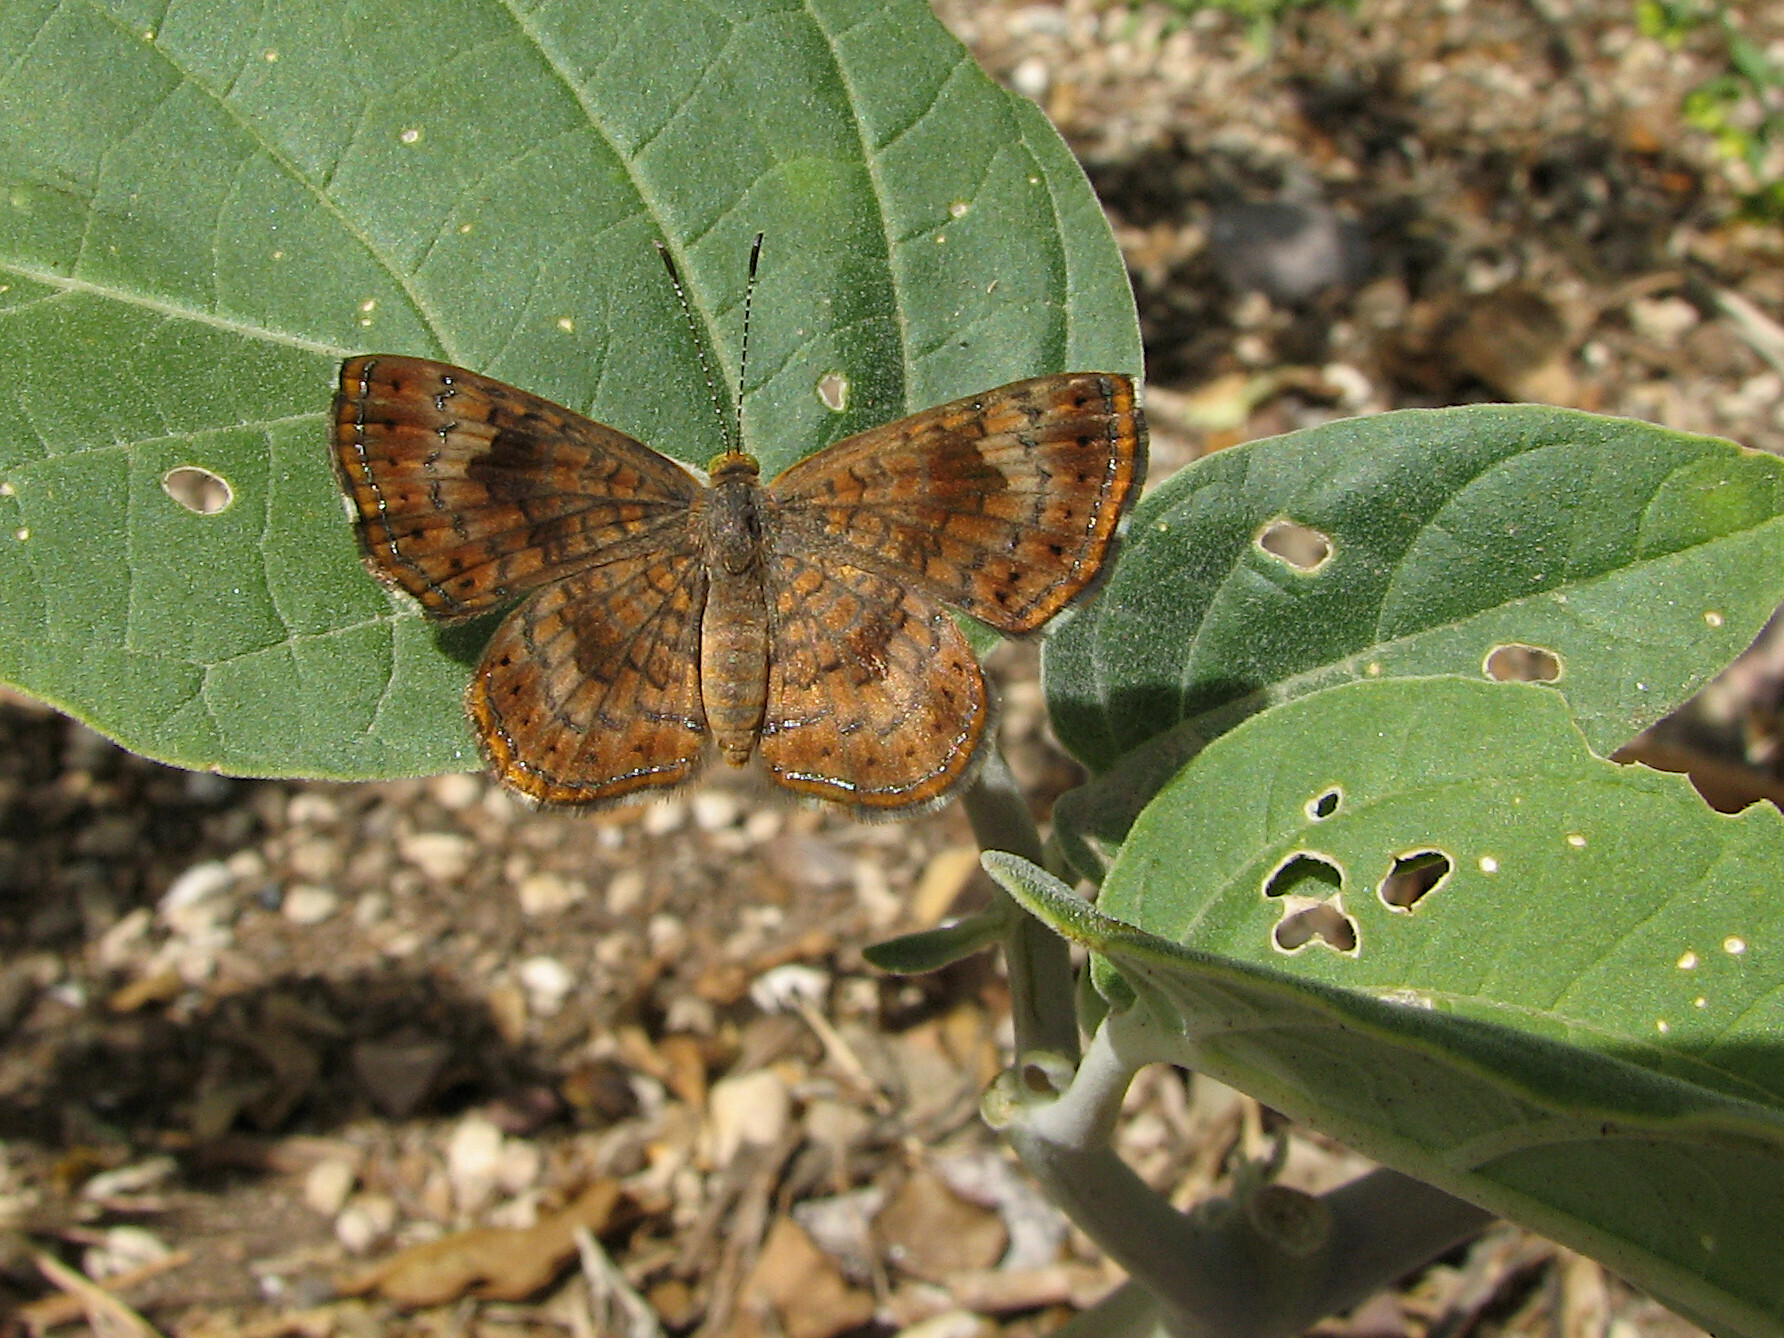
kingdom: Animalia
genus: Calephelis
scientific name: Calephelis nemesis
